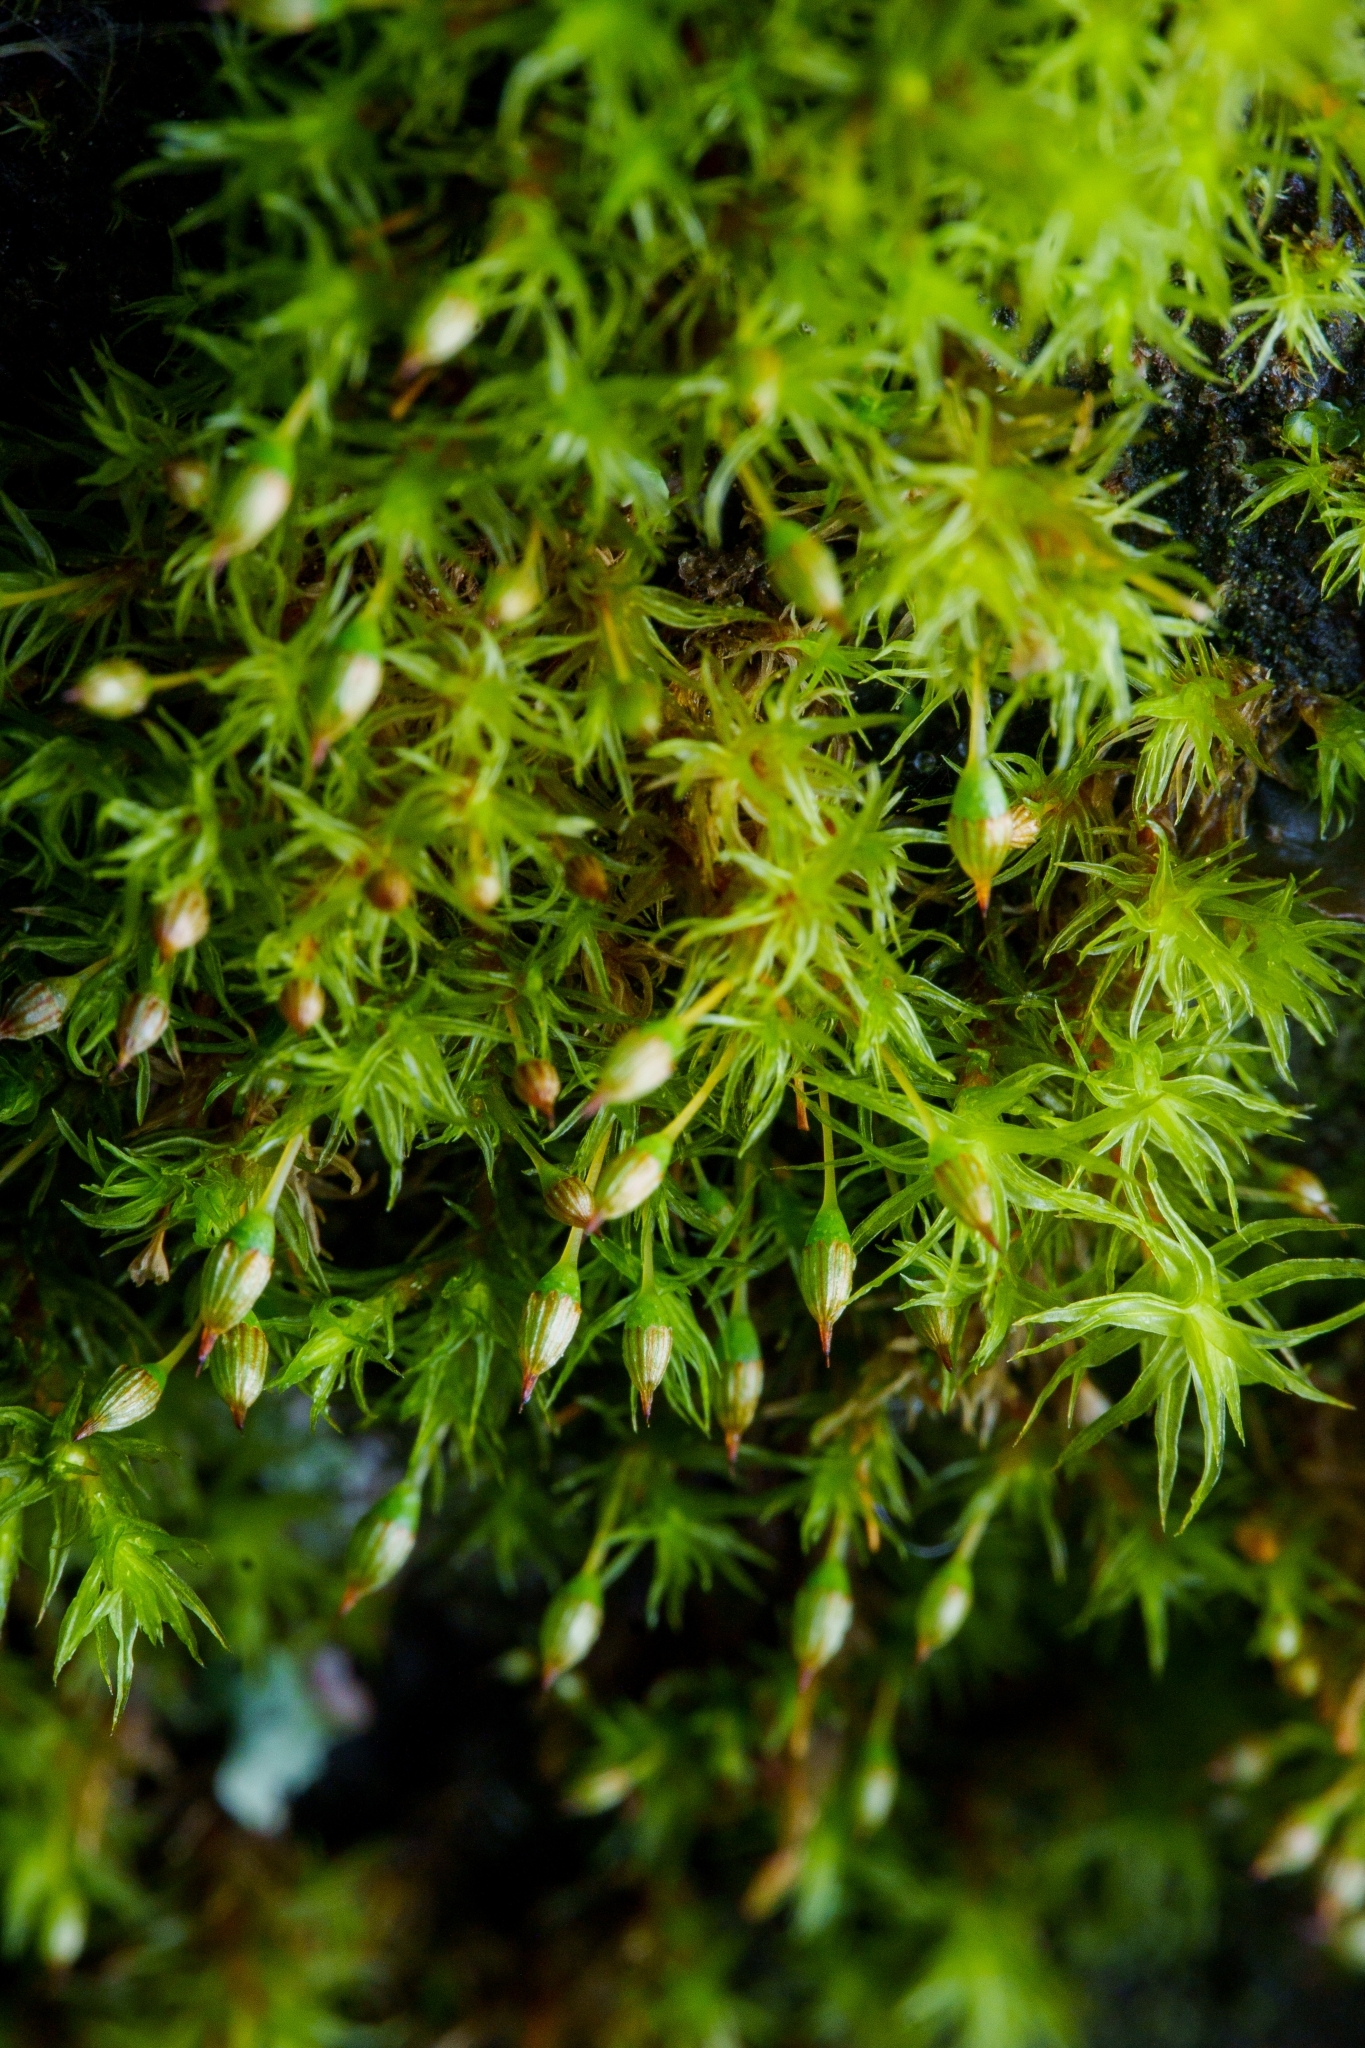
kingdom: Plantae
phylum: Bryophyta
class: Bryopsida
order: Orthotrichales
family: Orthotrichaceae
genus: Orthotrichum
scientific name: Orthotrichum pulchellum
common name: Elegant bristle-moss
